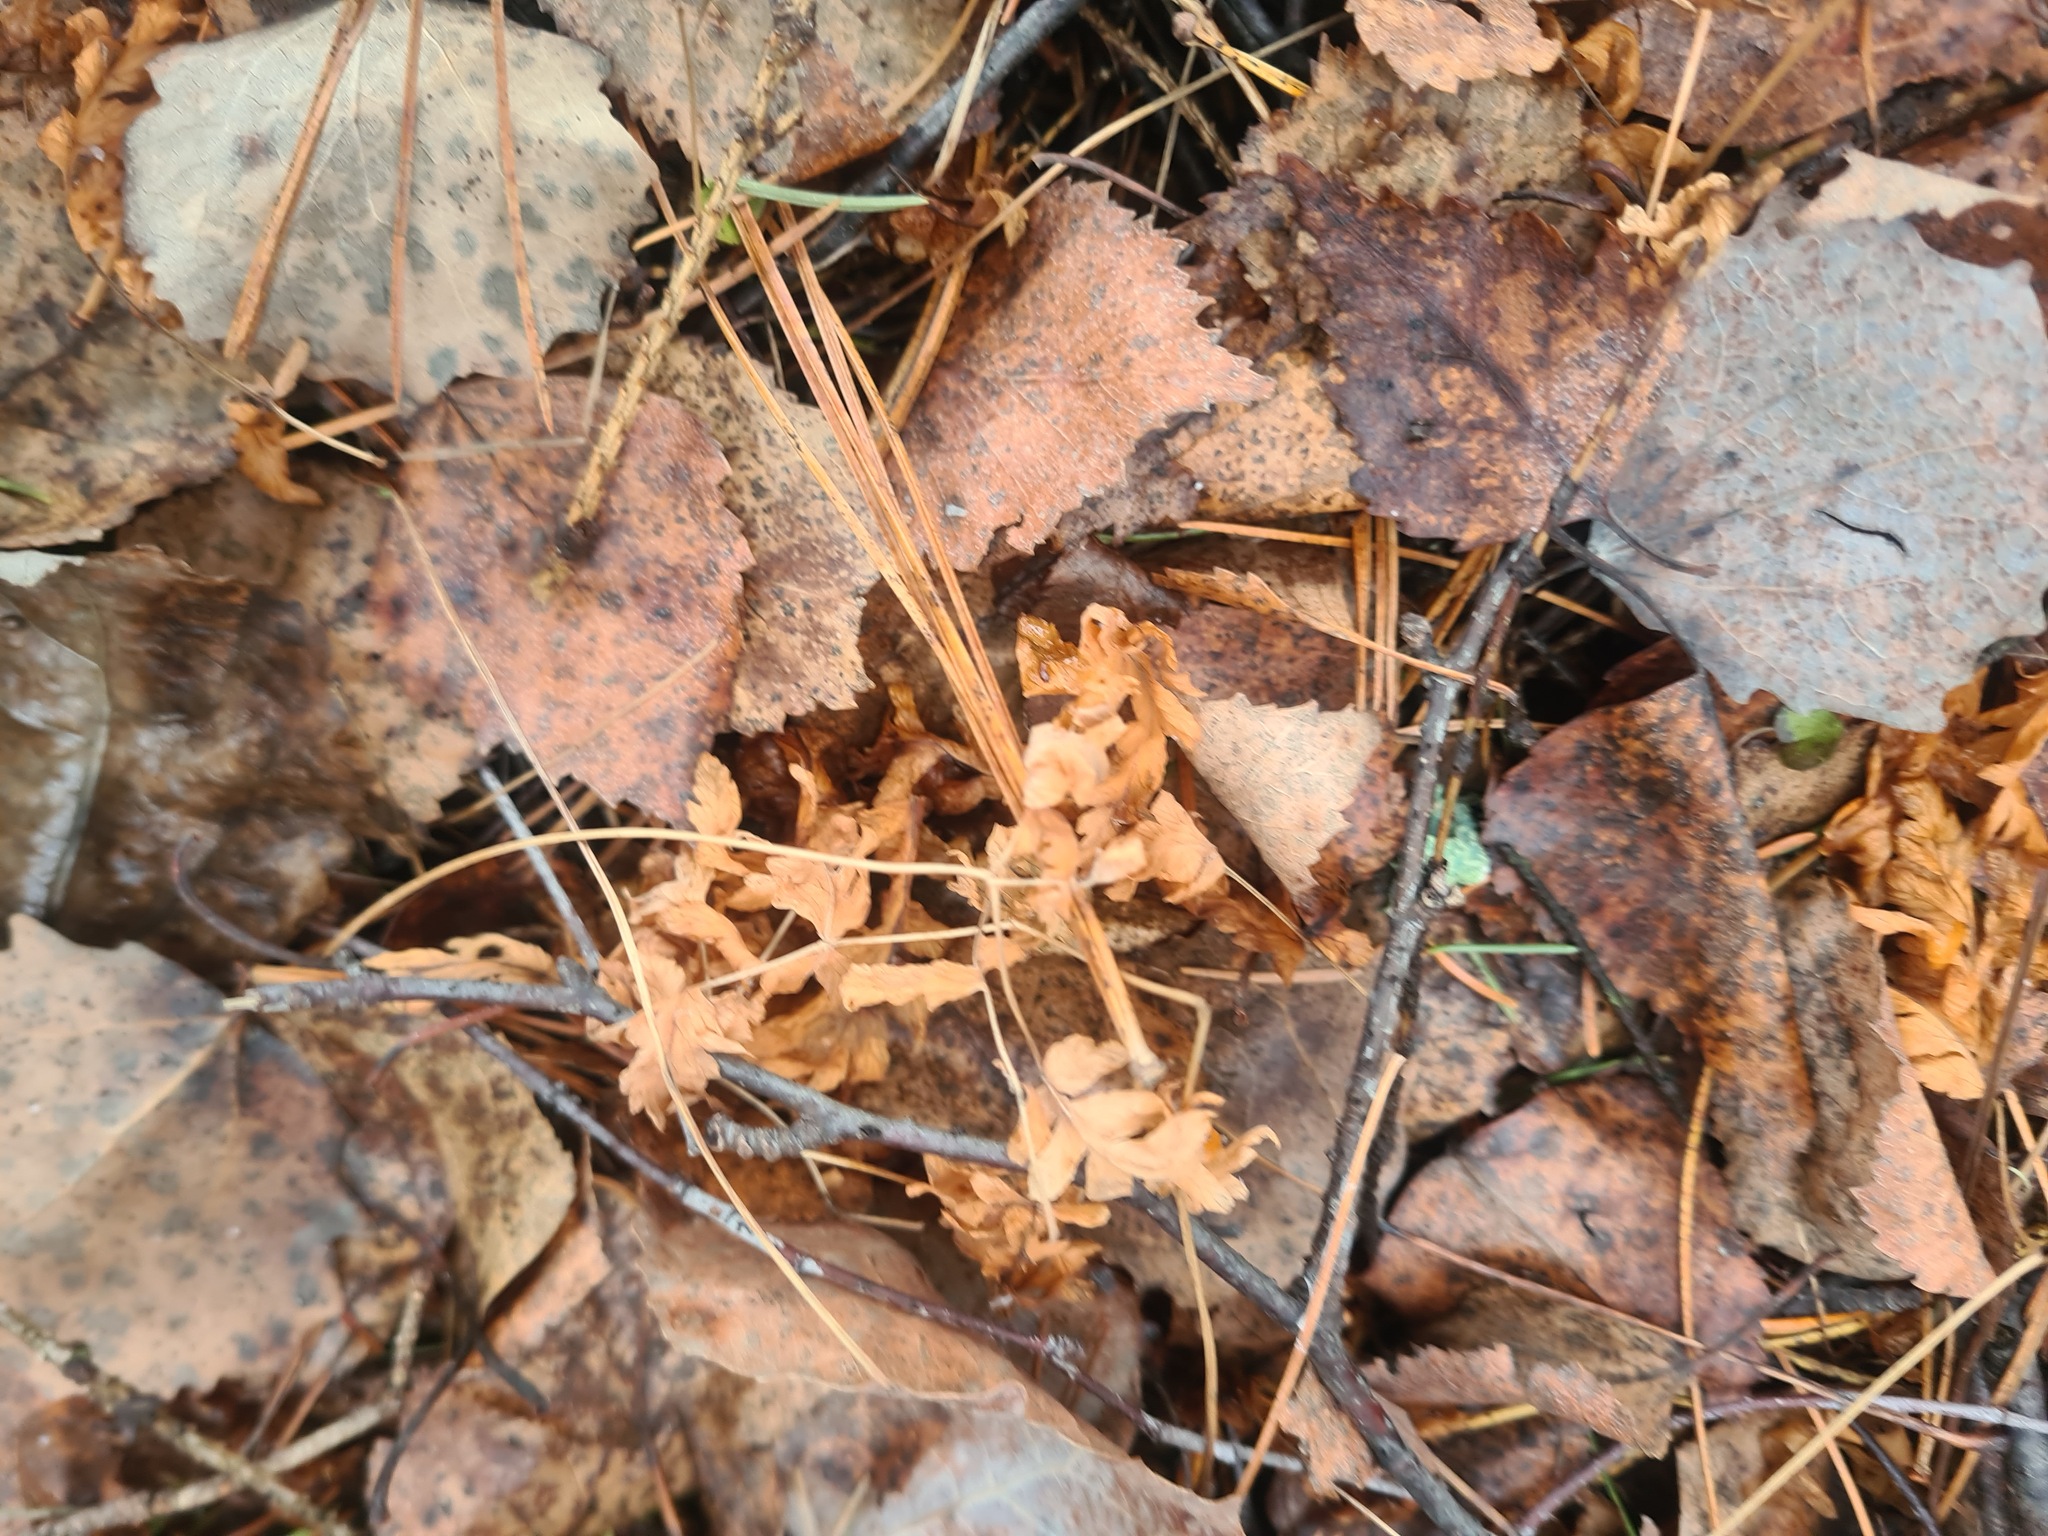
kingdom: Plantae
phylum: Tracheophyta
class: Polypodiopsida
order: Polypodiales
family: Cystopteridaceae
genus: Gymnocarpium
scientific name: Gymnocarpium dryopteris
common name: Oak fern
